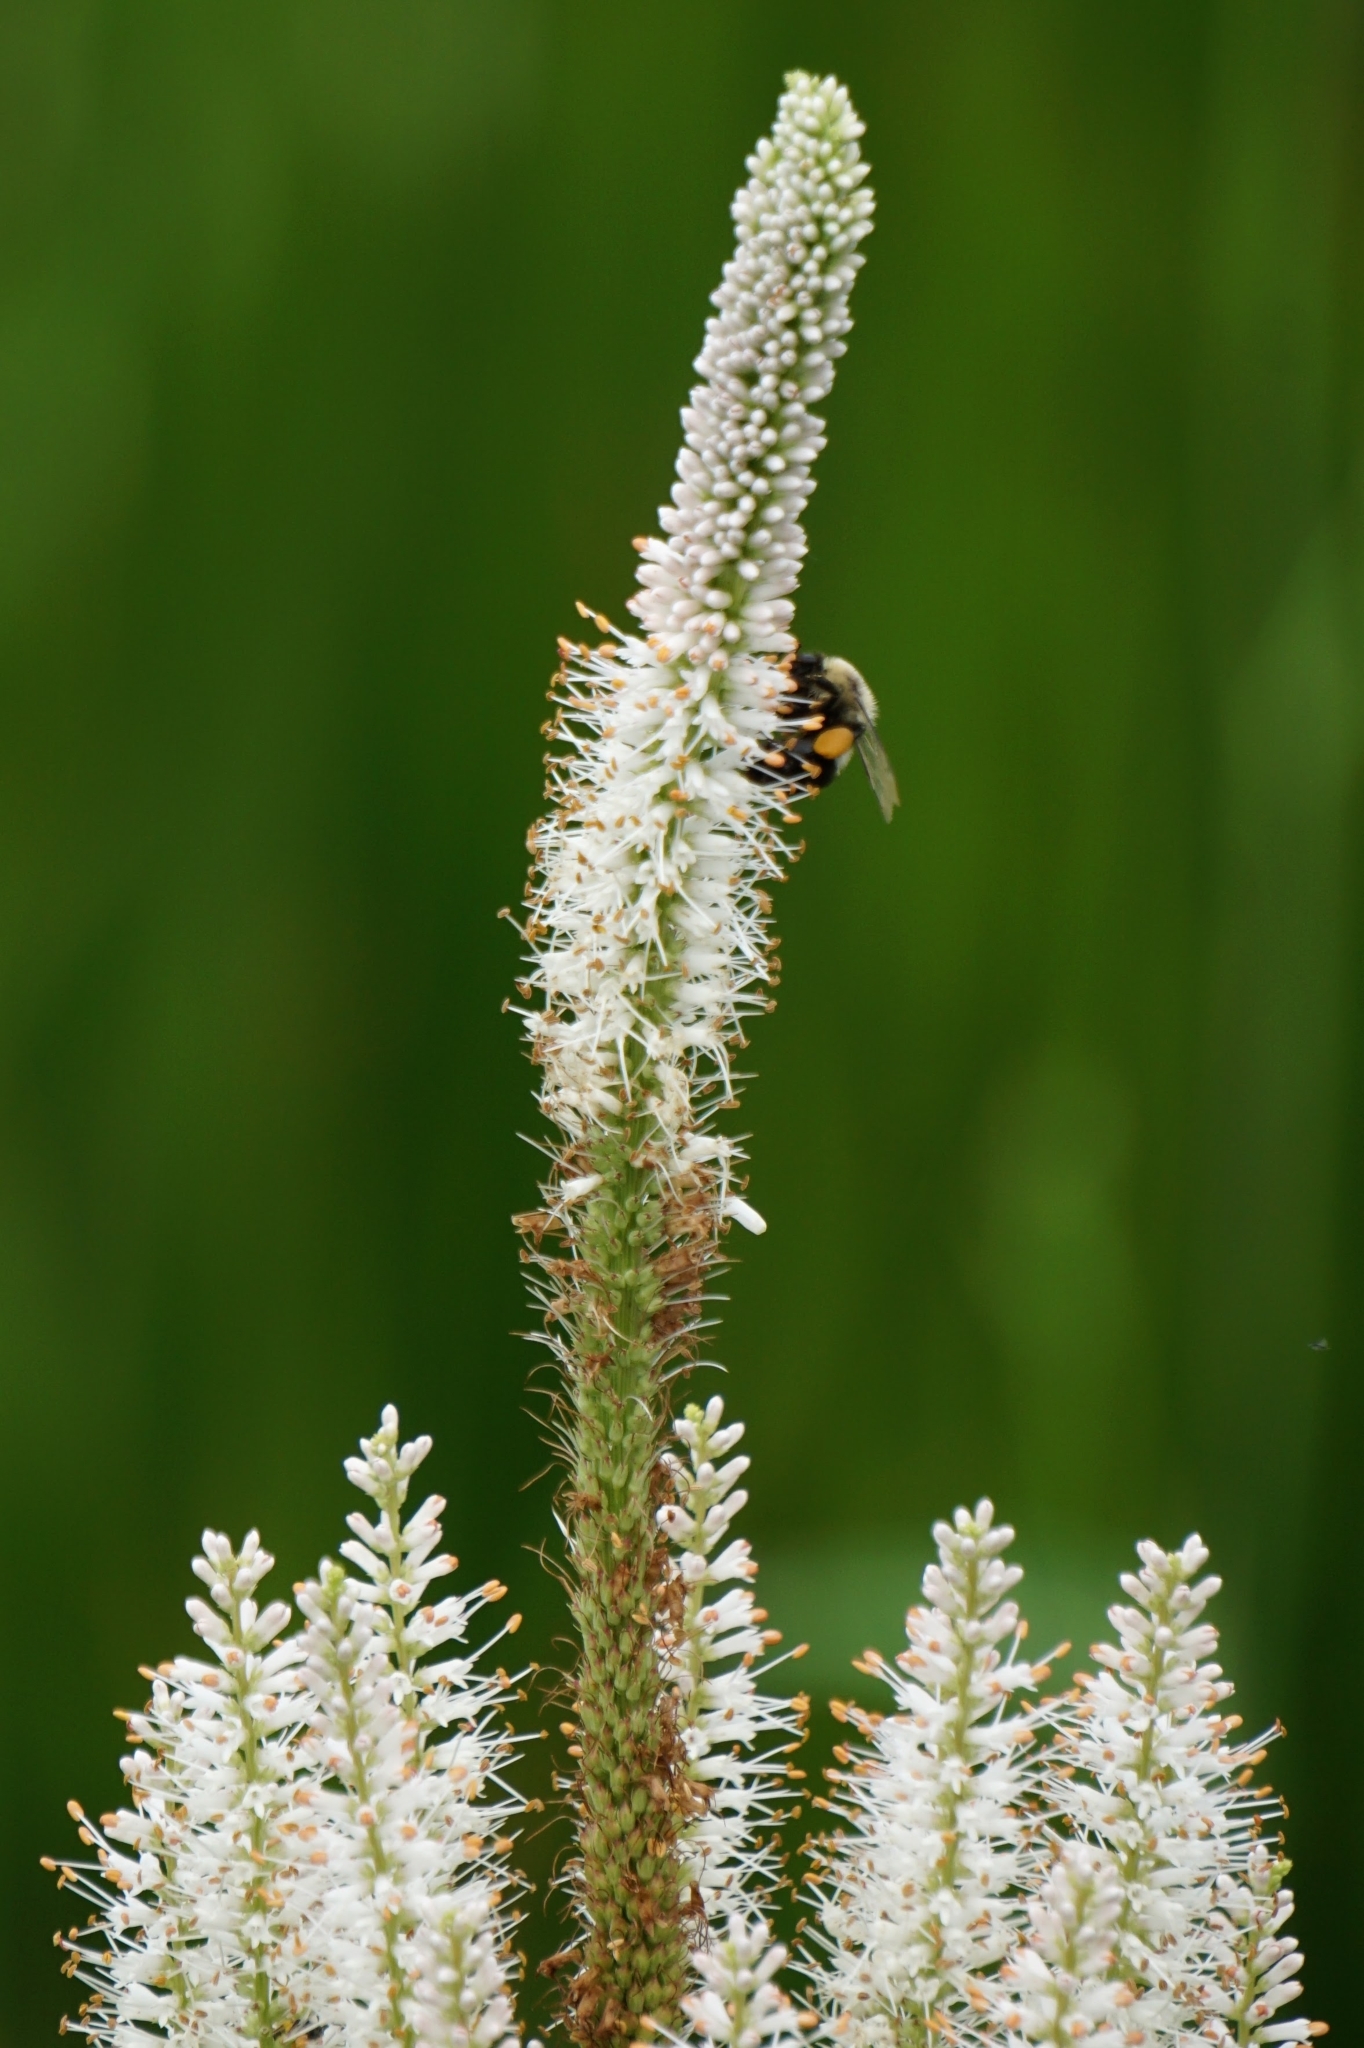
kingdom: Plantae
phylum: Tracheophyta
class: Magnoliopsida
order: Lamiales
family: Plantaginaceae
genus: Veronicastrum
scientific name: Veronicastrum virginicum
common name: Blackroot
